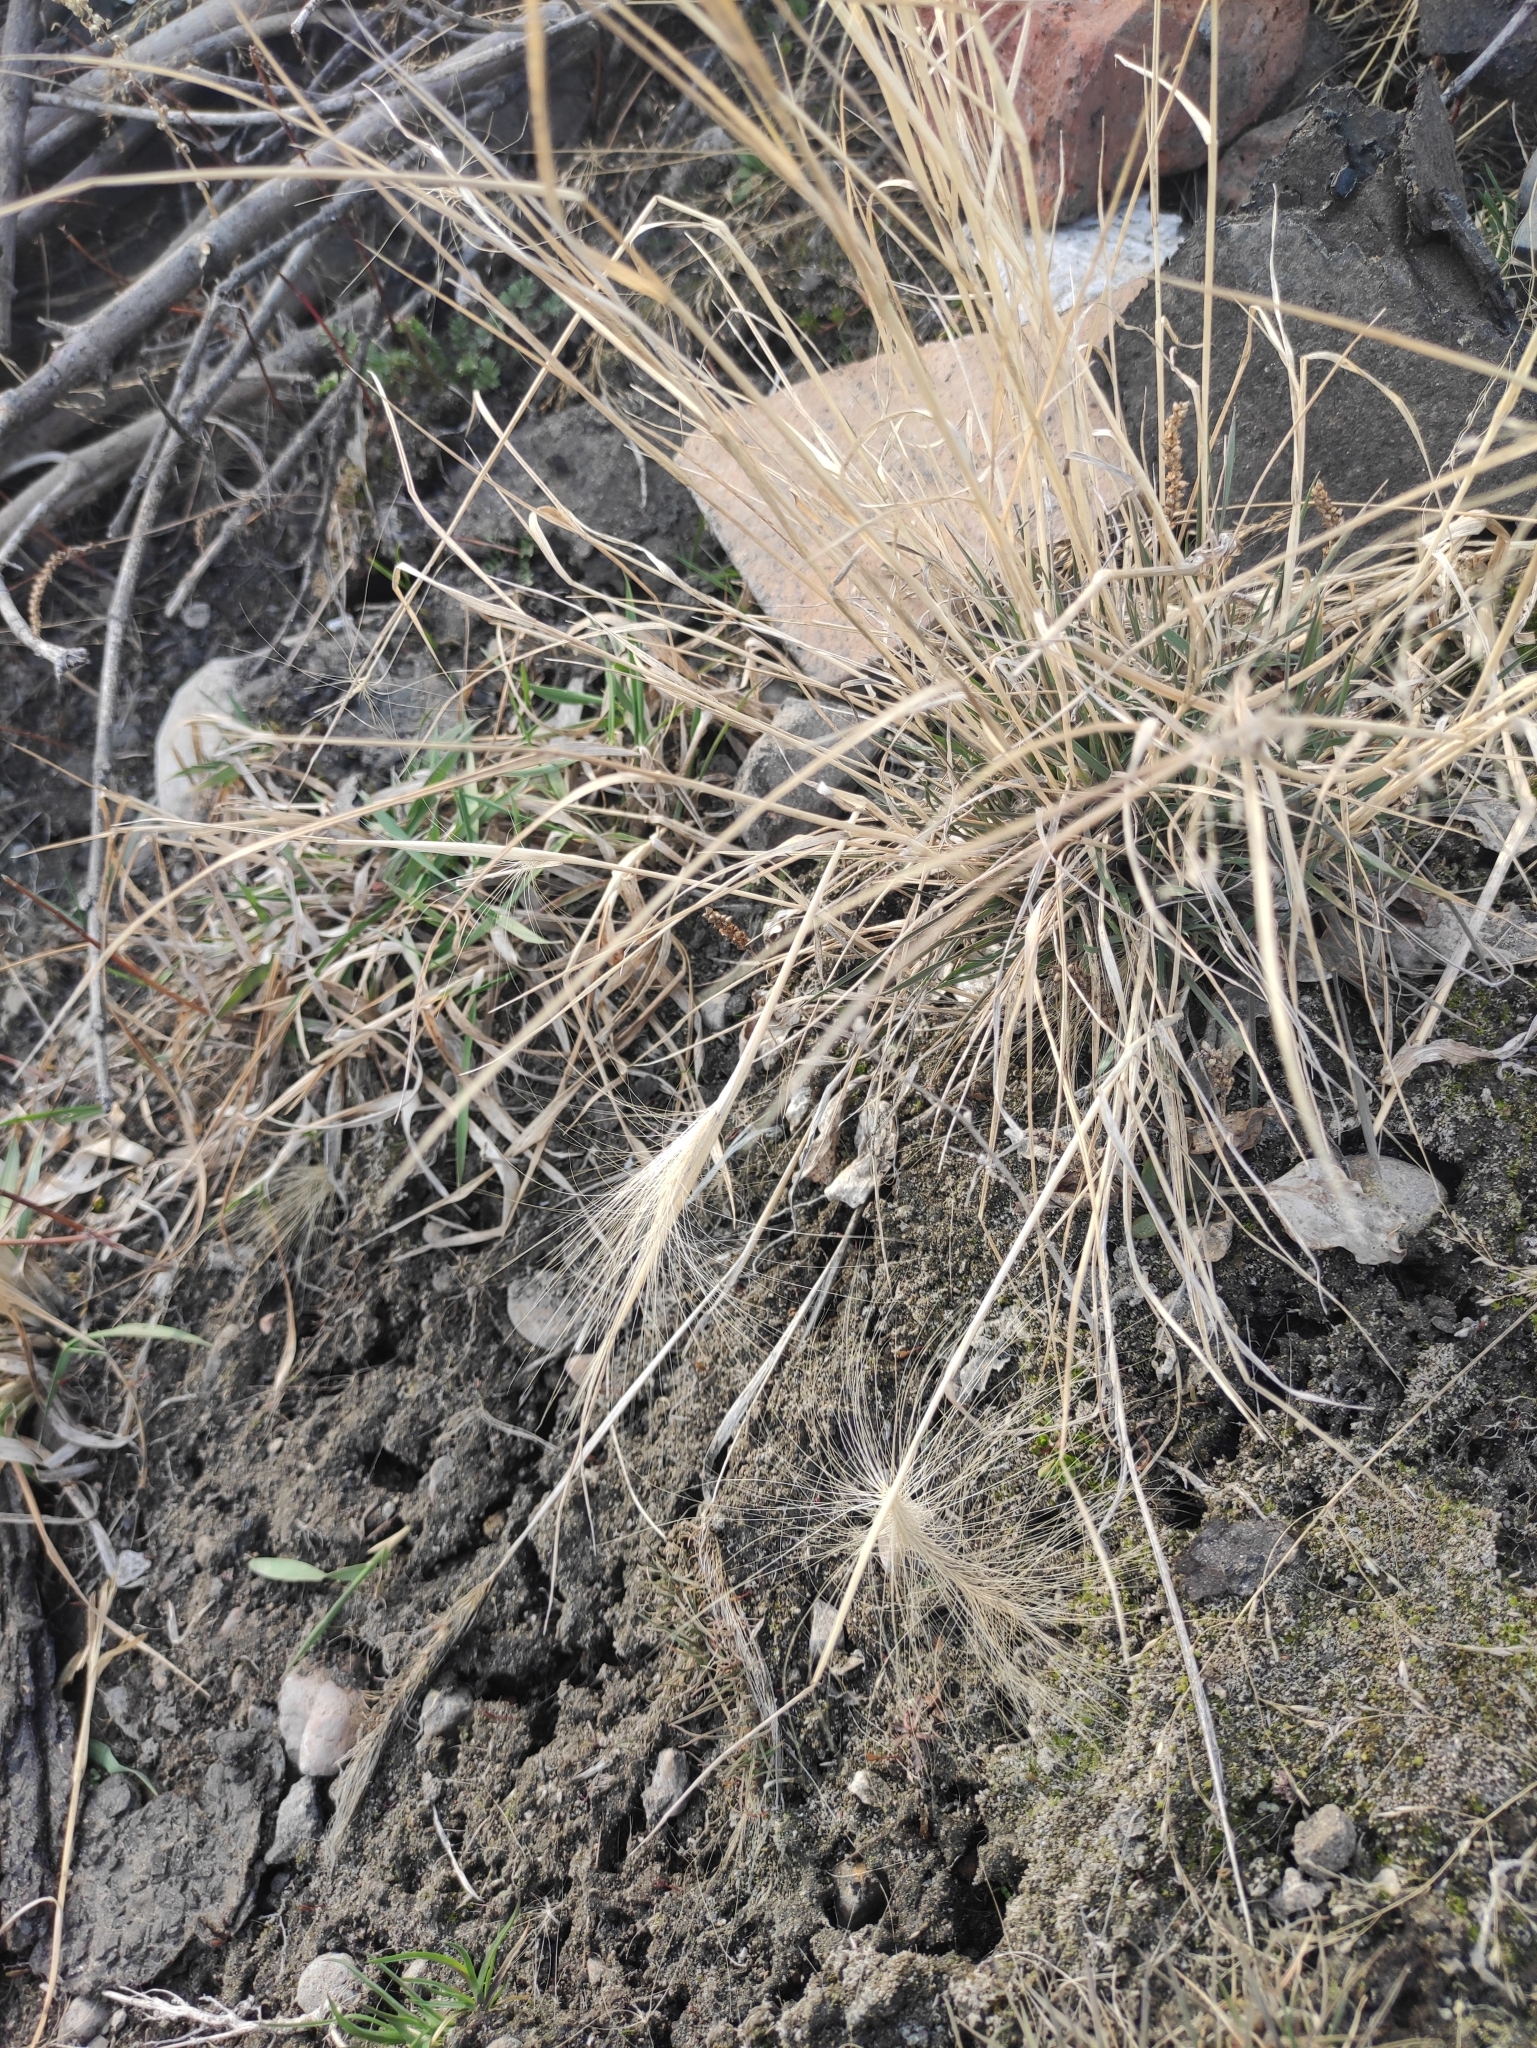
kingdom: Plantae
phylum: Tracheophyta
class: Liliopsida
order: Poales
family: Poaceae
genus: Hordeum
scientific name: Hordeum jubatum
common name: Foxtail barley
